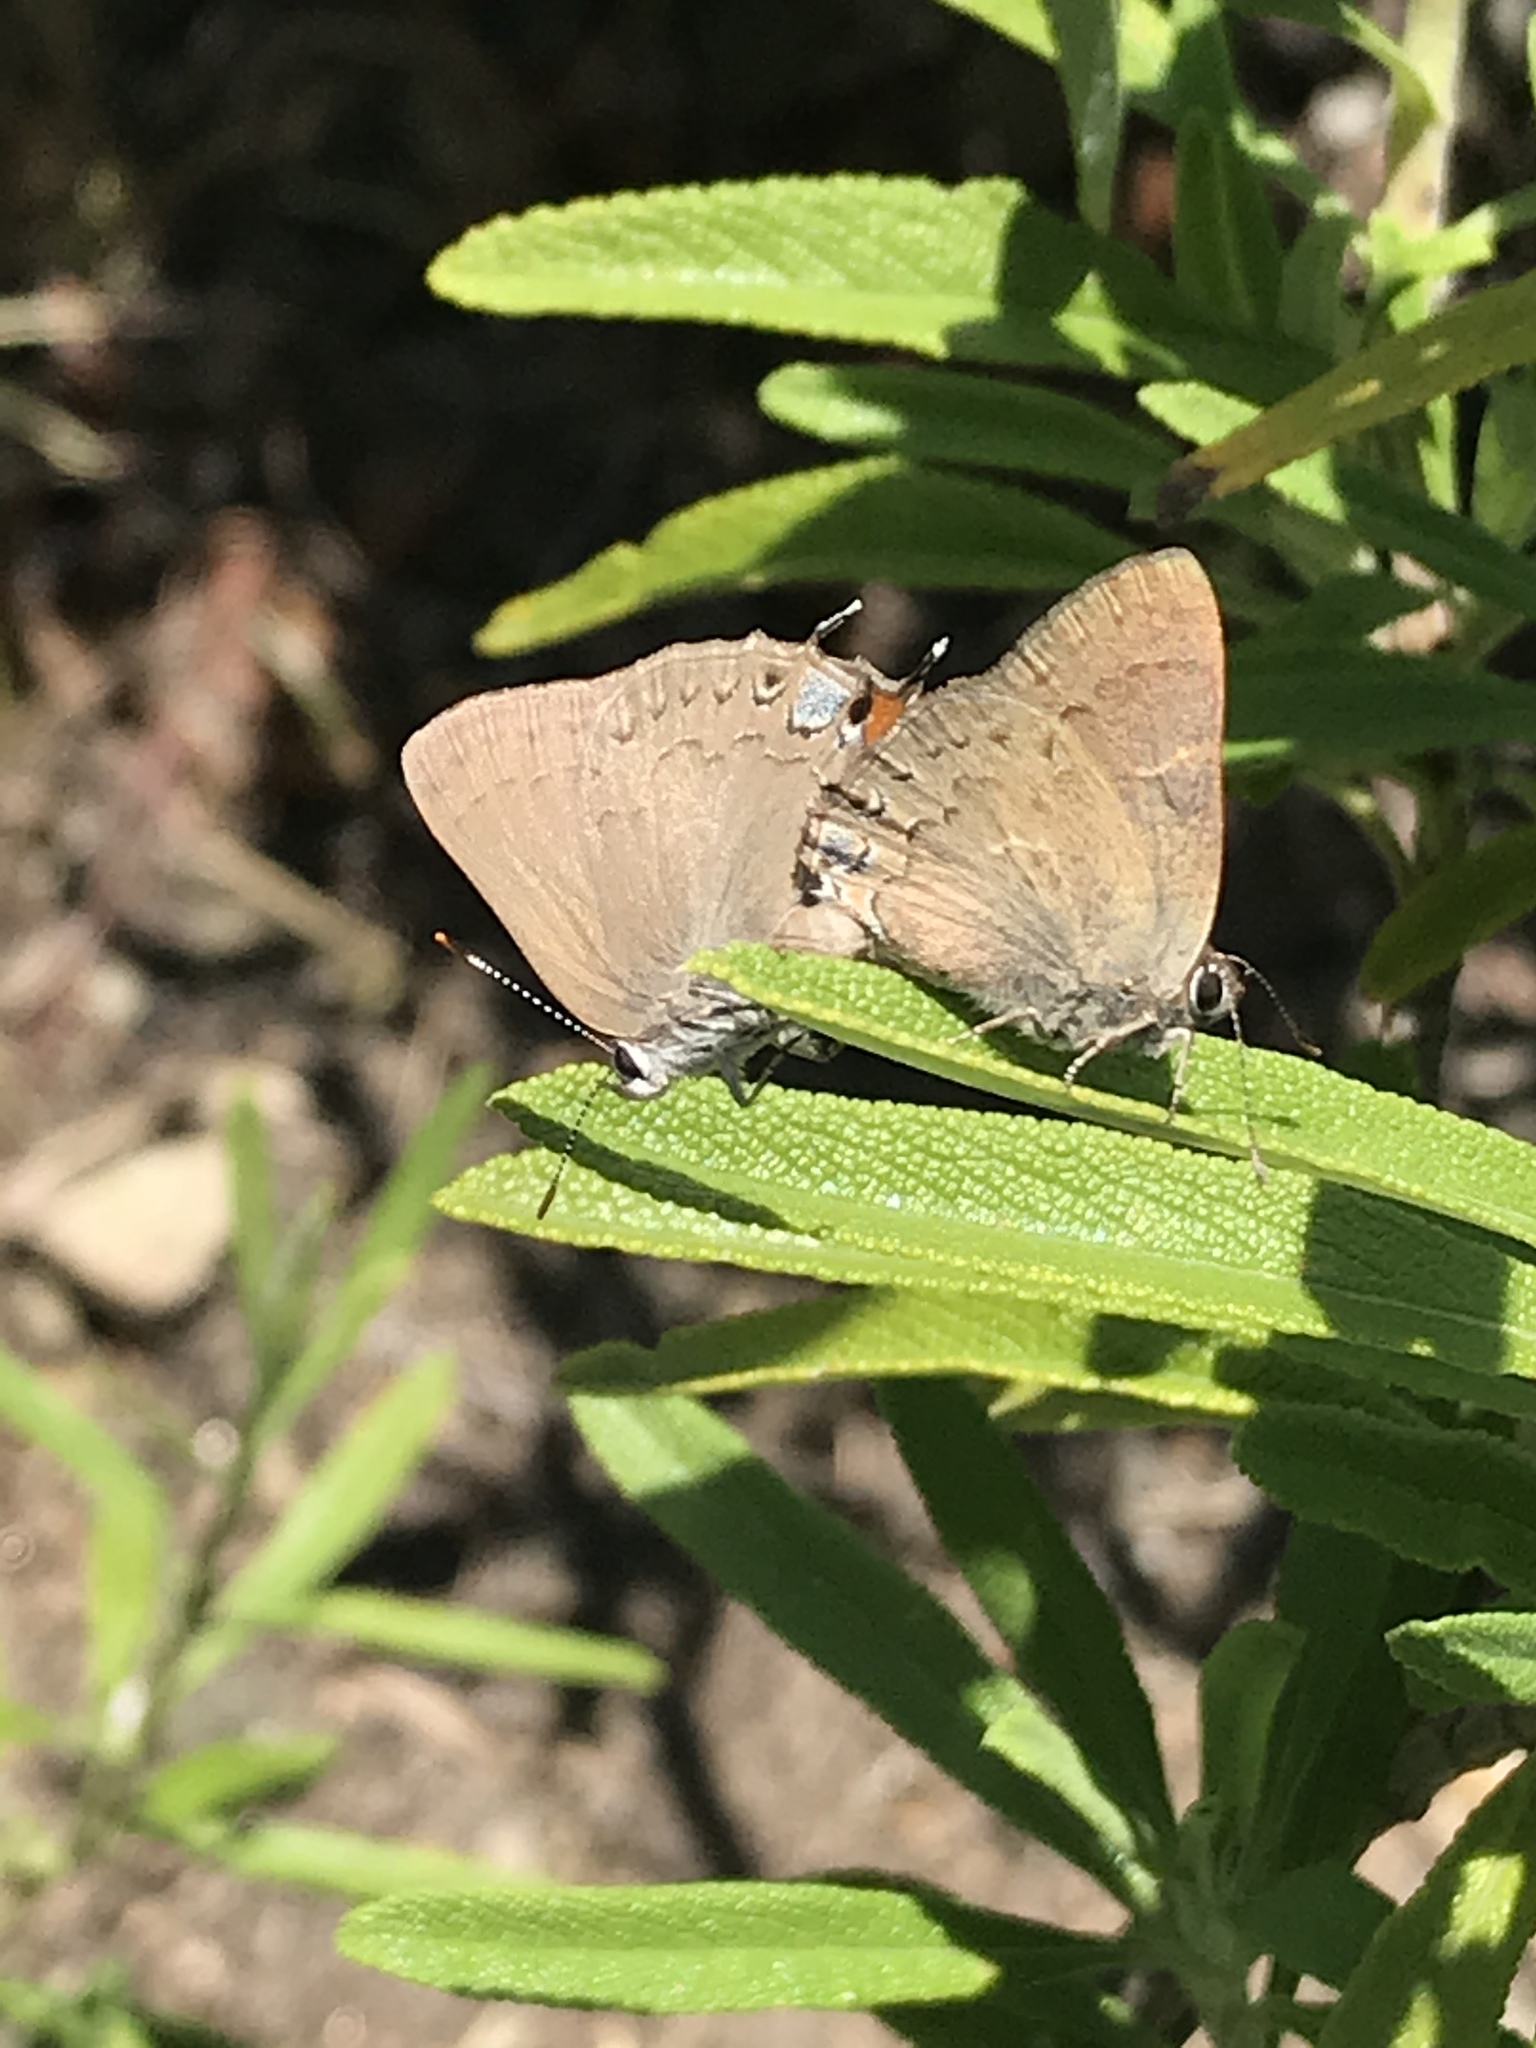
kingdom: Animalia
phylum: Arthropoda
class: Insecta
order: Lepidoptera
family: Lycaenidae
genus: Strymon
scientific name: Strymon saepium
